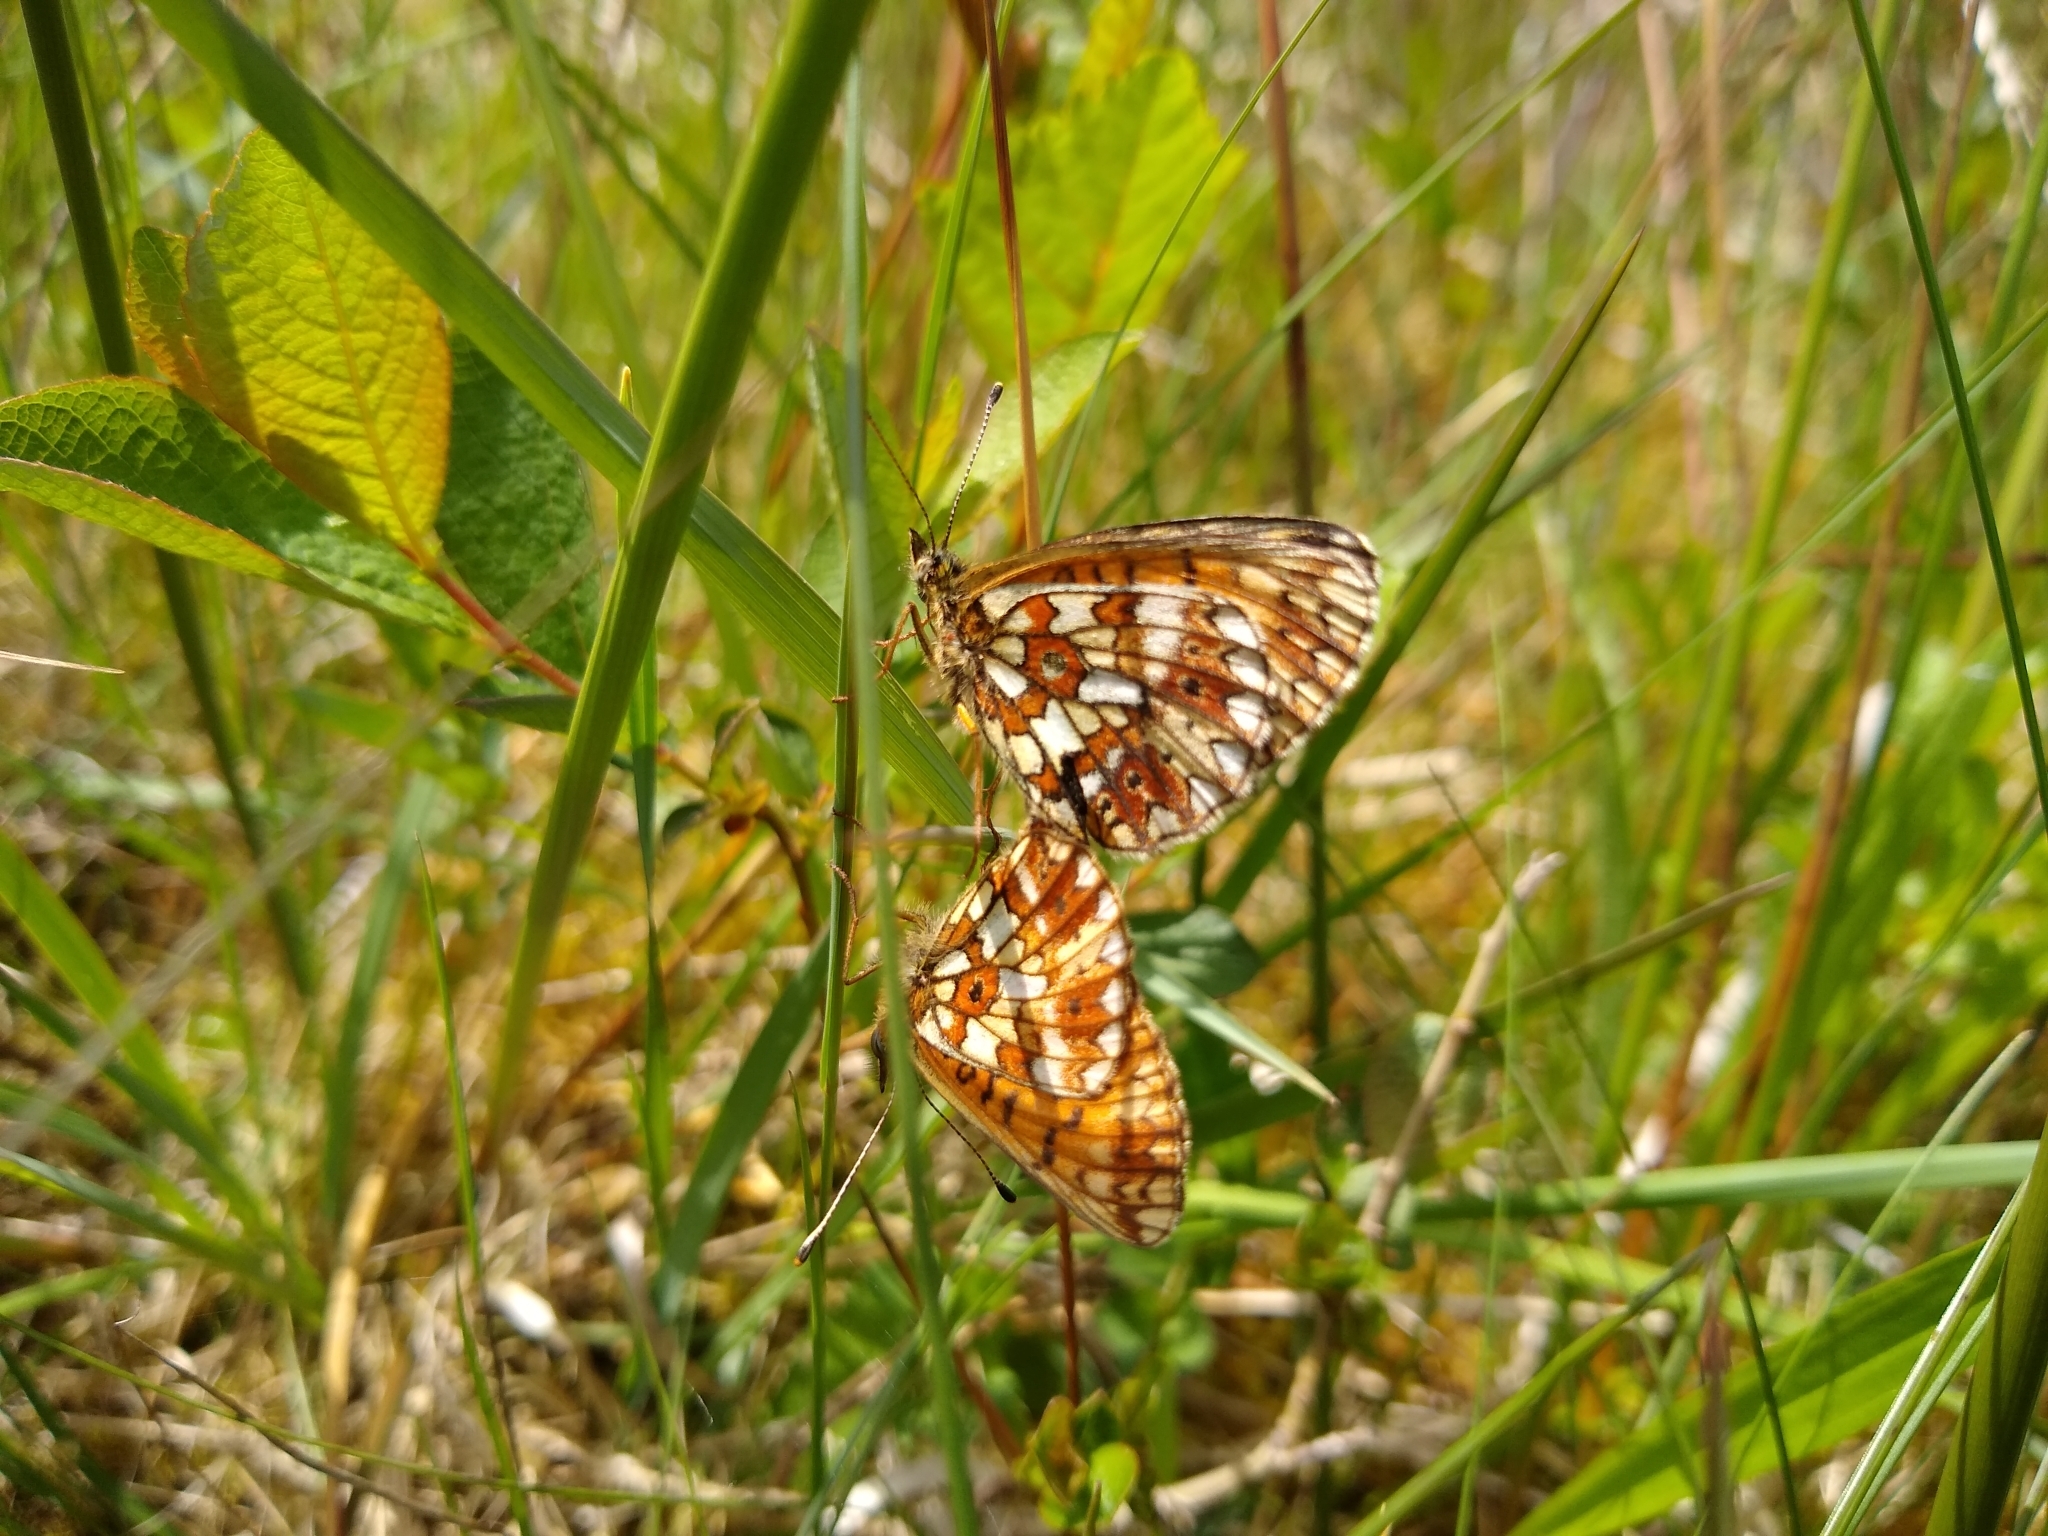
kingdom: Animalia
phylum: Arthropoda
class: Insecta
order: Lepidoptera
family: Nymphalidae
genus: Boloria
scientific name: Boloria selene
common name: Small pearl-bordered fritillary
